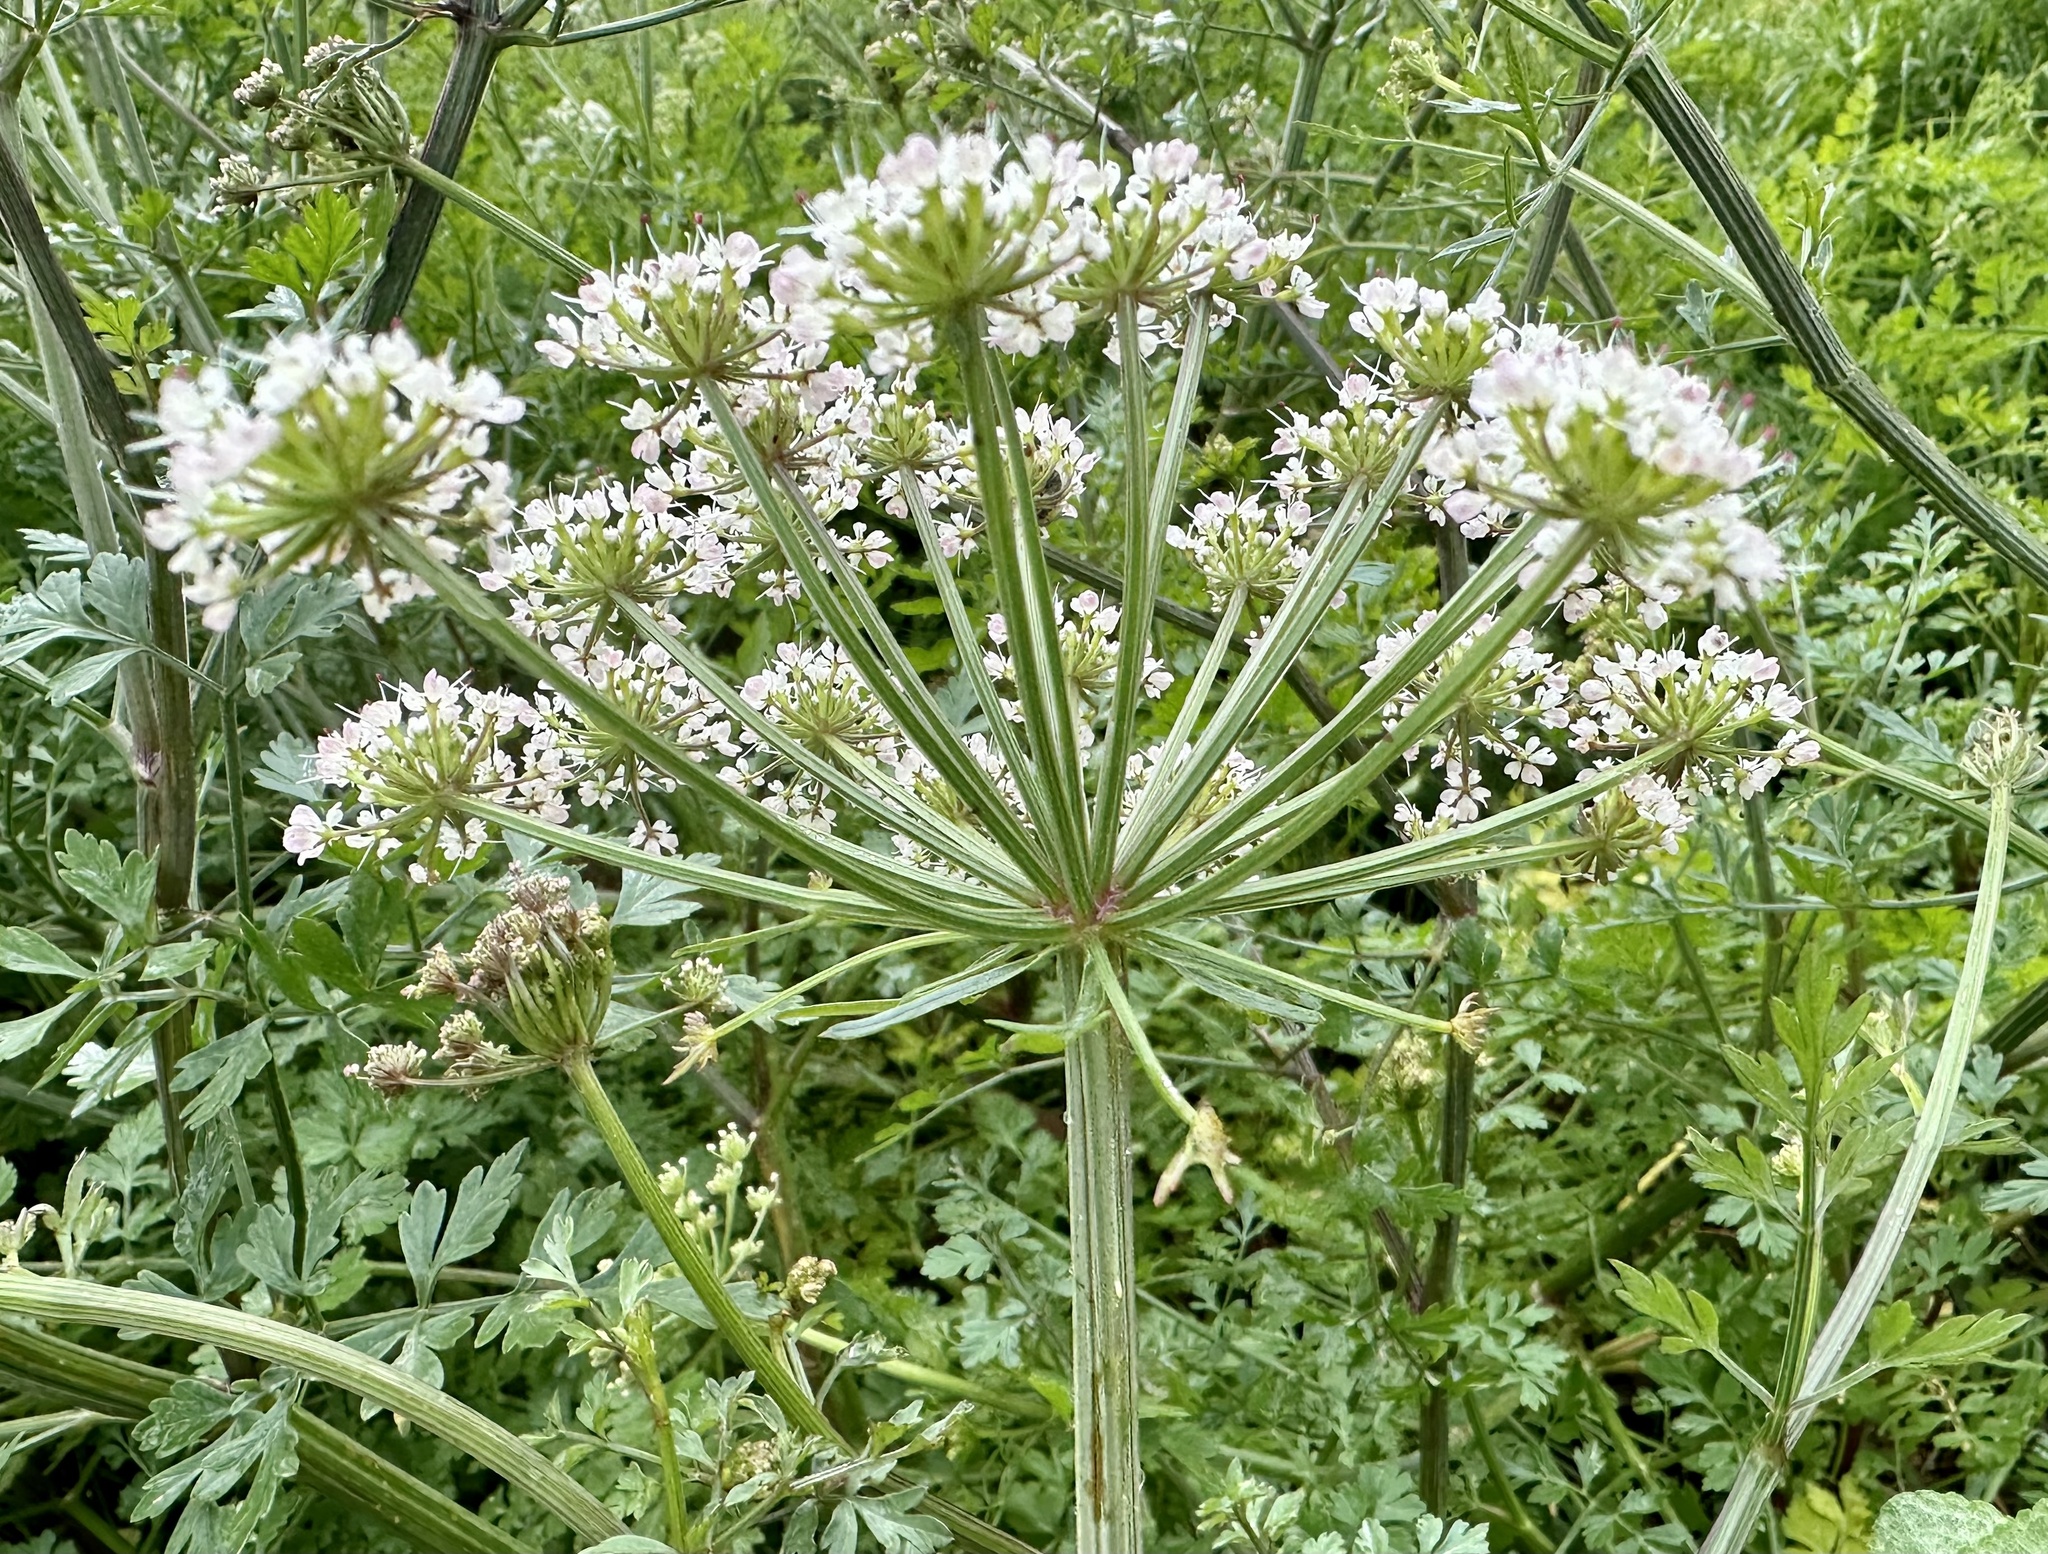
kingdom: Plantae
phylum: Tracheophyta
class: Magnoliopsida
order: Apiales
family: Apiaceae
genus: Oenanthe
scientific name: Oenanthe crocata
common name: Hemlock water-dropwort
